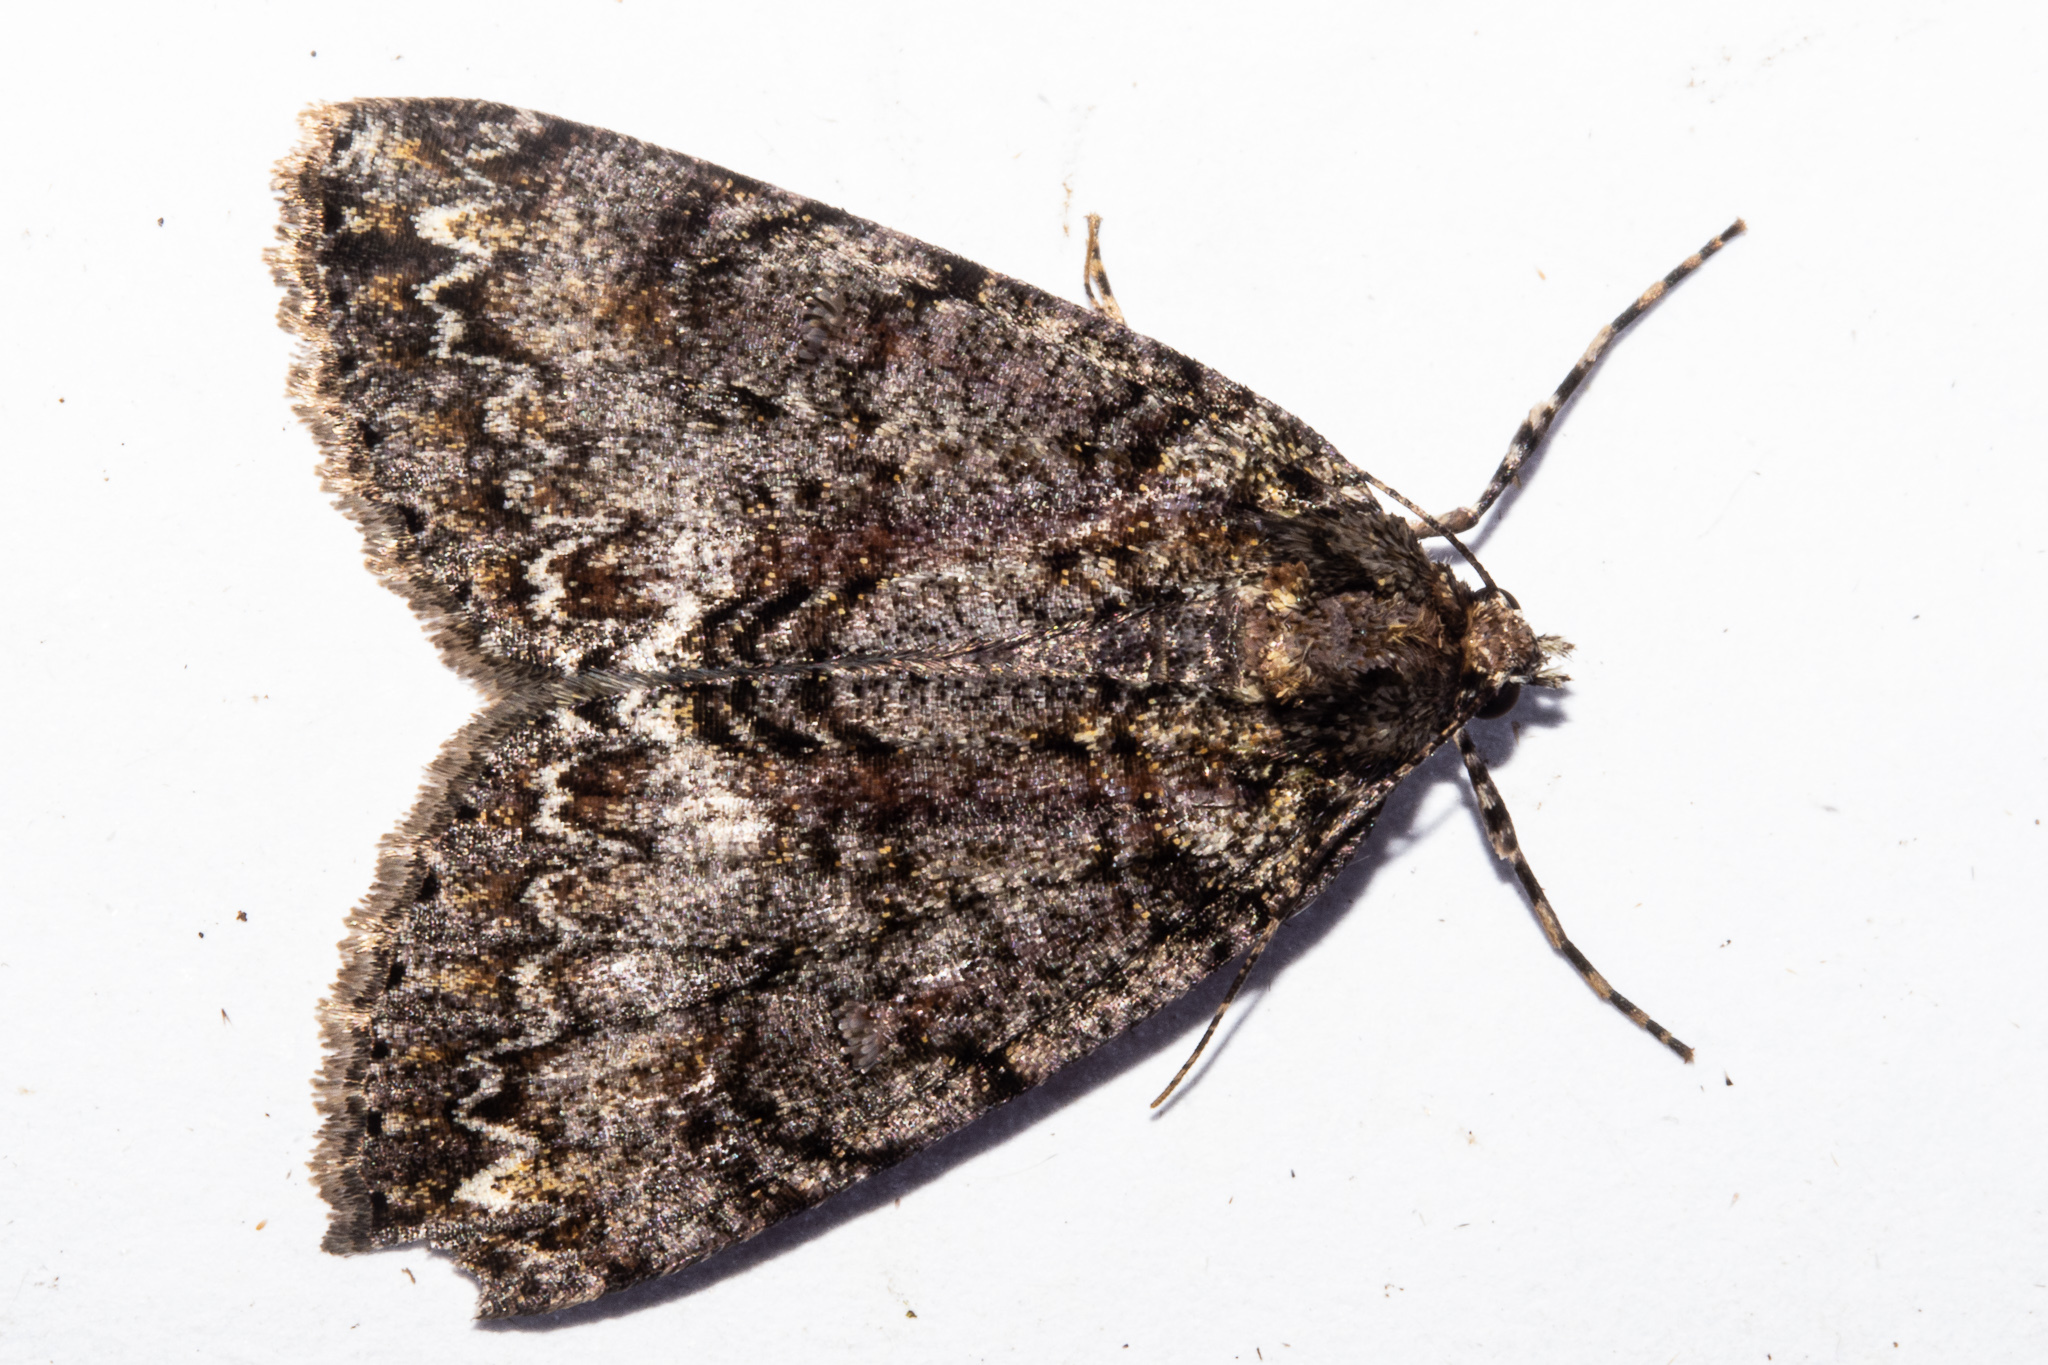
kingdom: Animalia
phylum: Arthropoda
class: Insecta
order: Lepidoptera
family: Geometridae
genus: Pseudocoremia
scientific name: Pseudocoremia suavis
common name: Common forest looper
